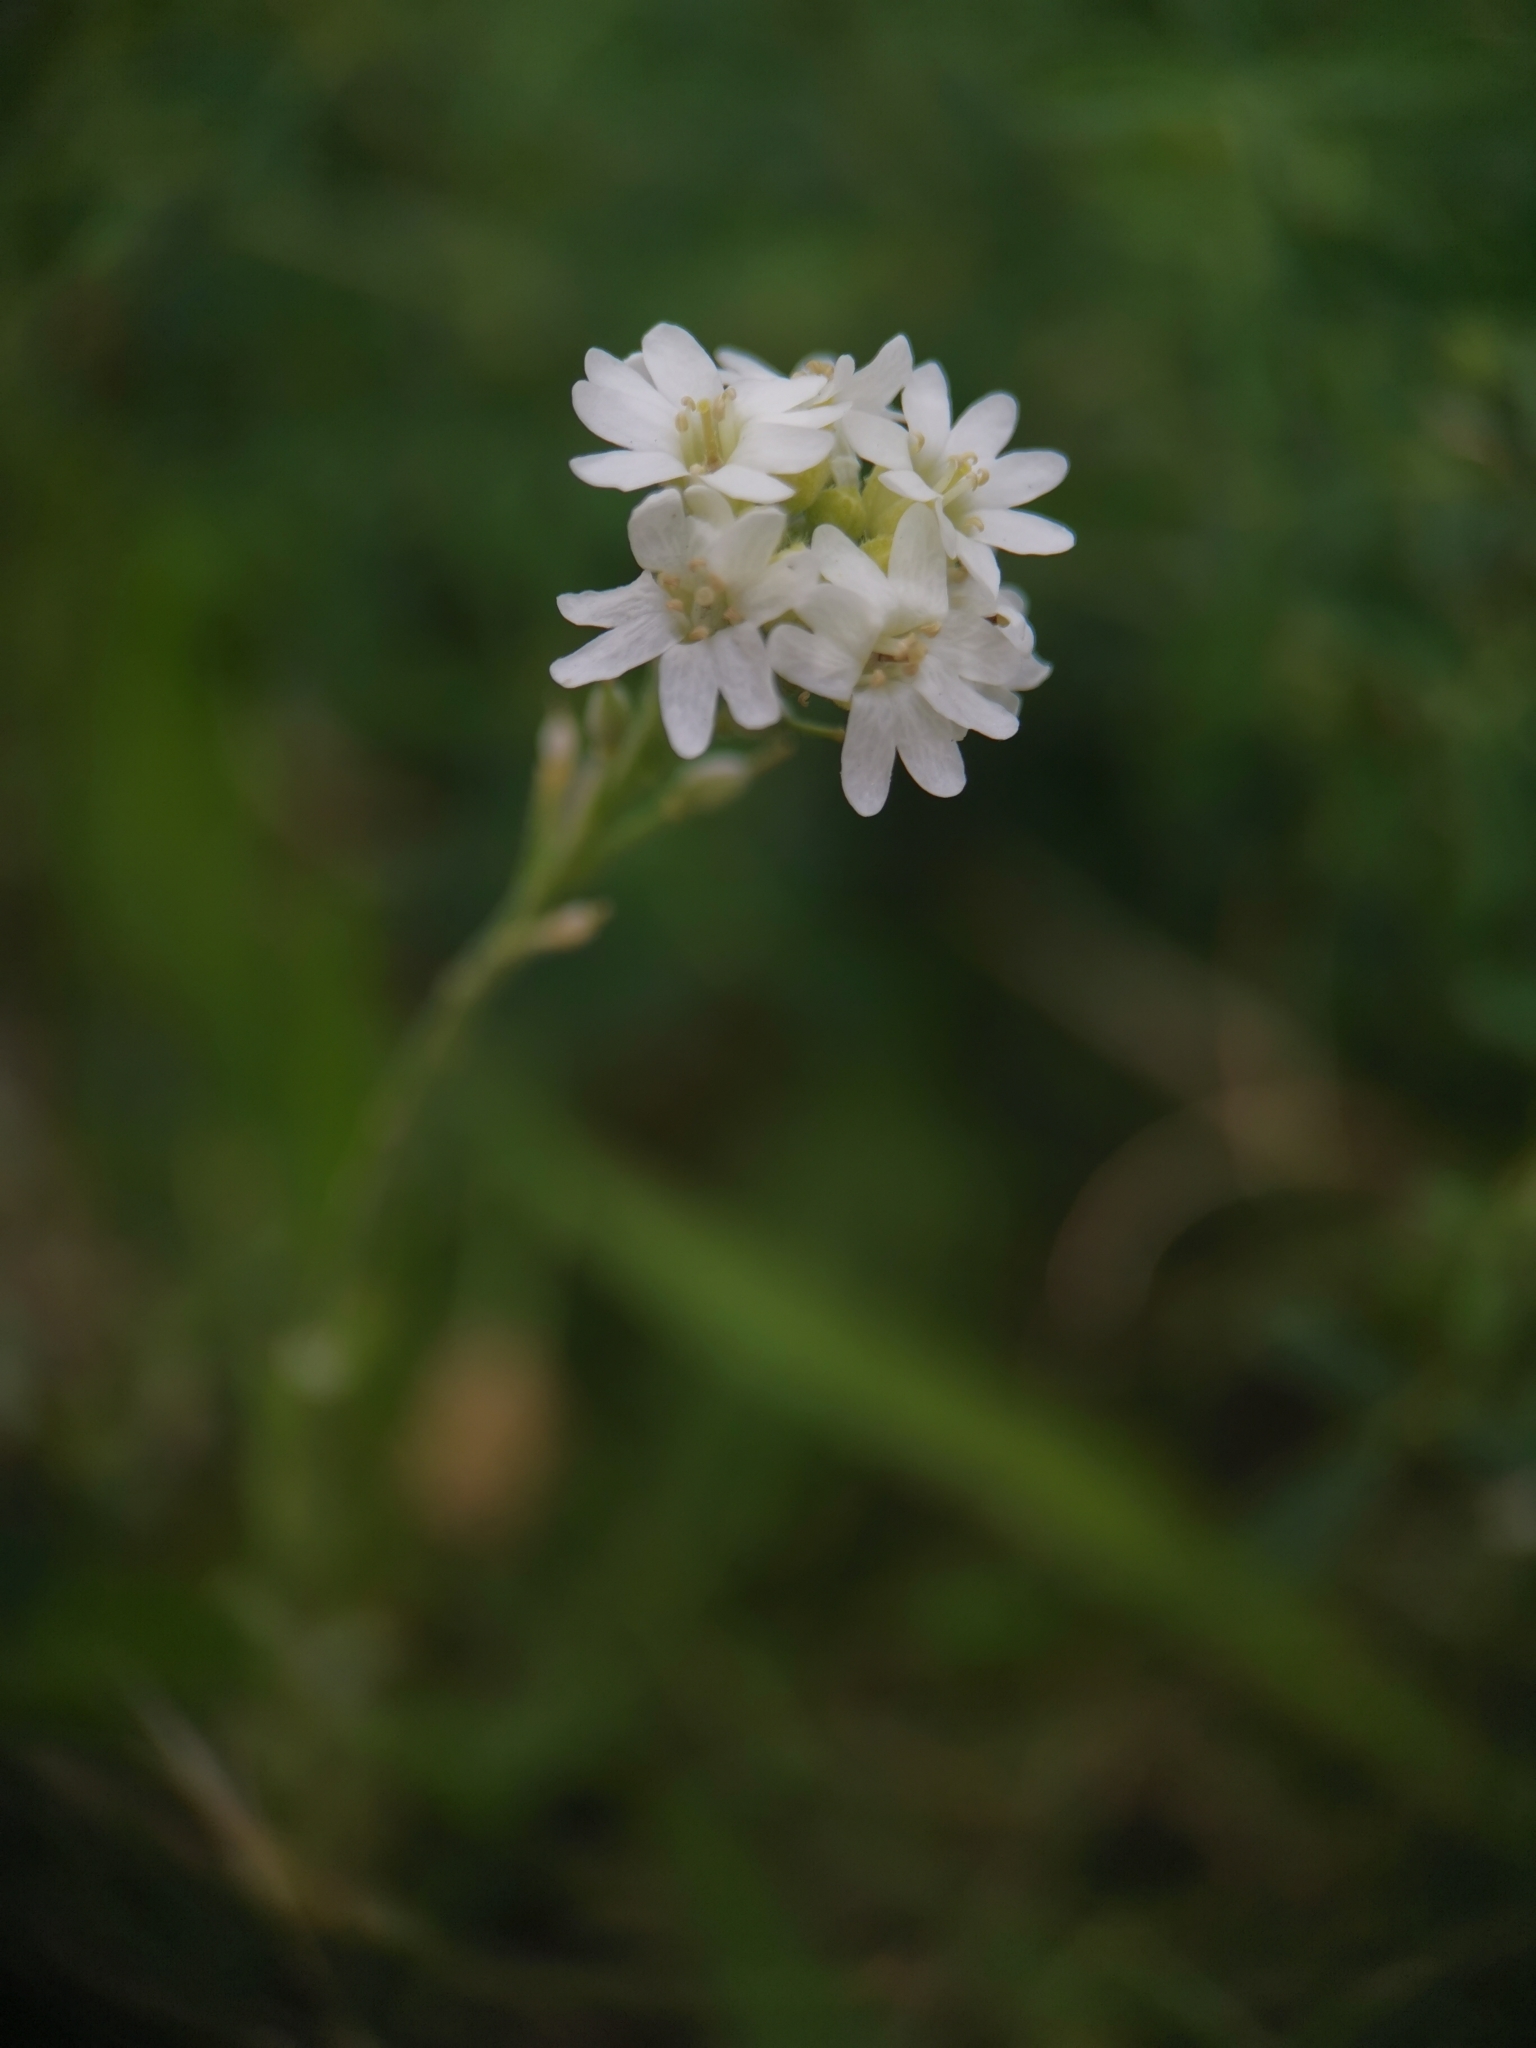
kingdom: Plantae
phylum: Tracheophyta
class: Magnoliopsida
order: Brassicales
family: Brassicaceae
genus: Berteroa
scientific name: Berteroa incana
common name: Hoary alison
